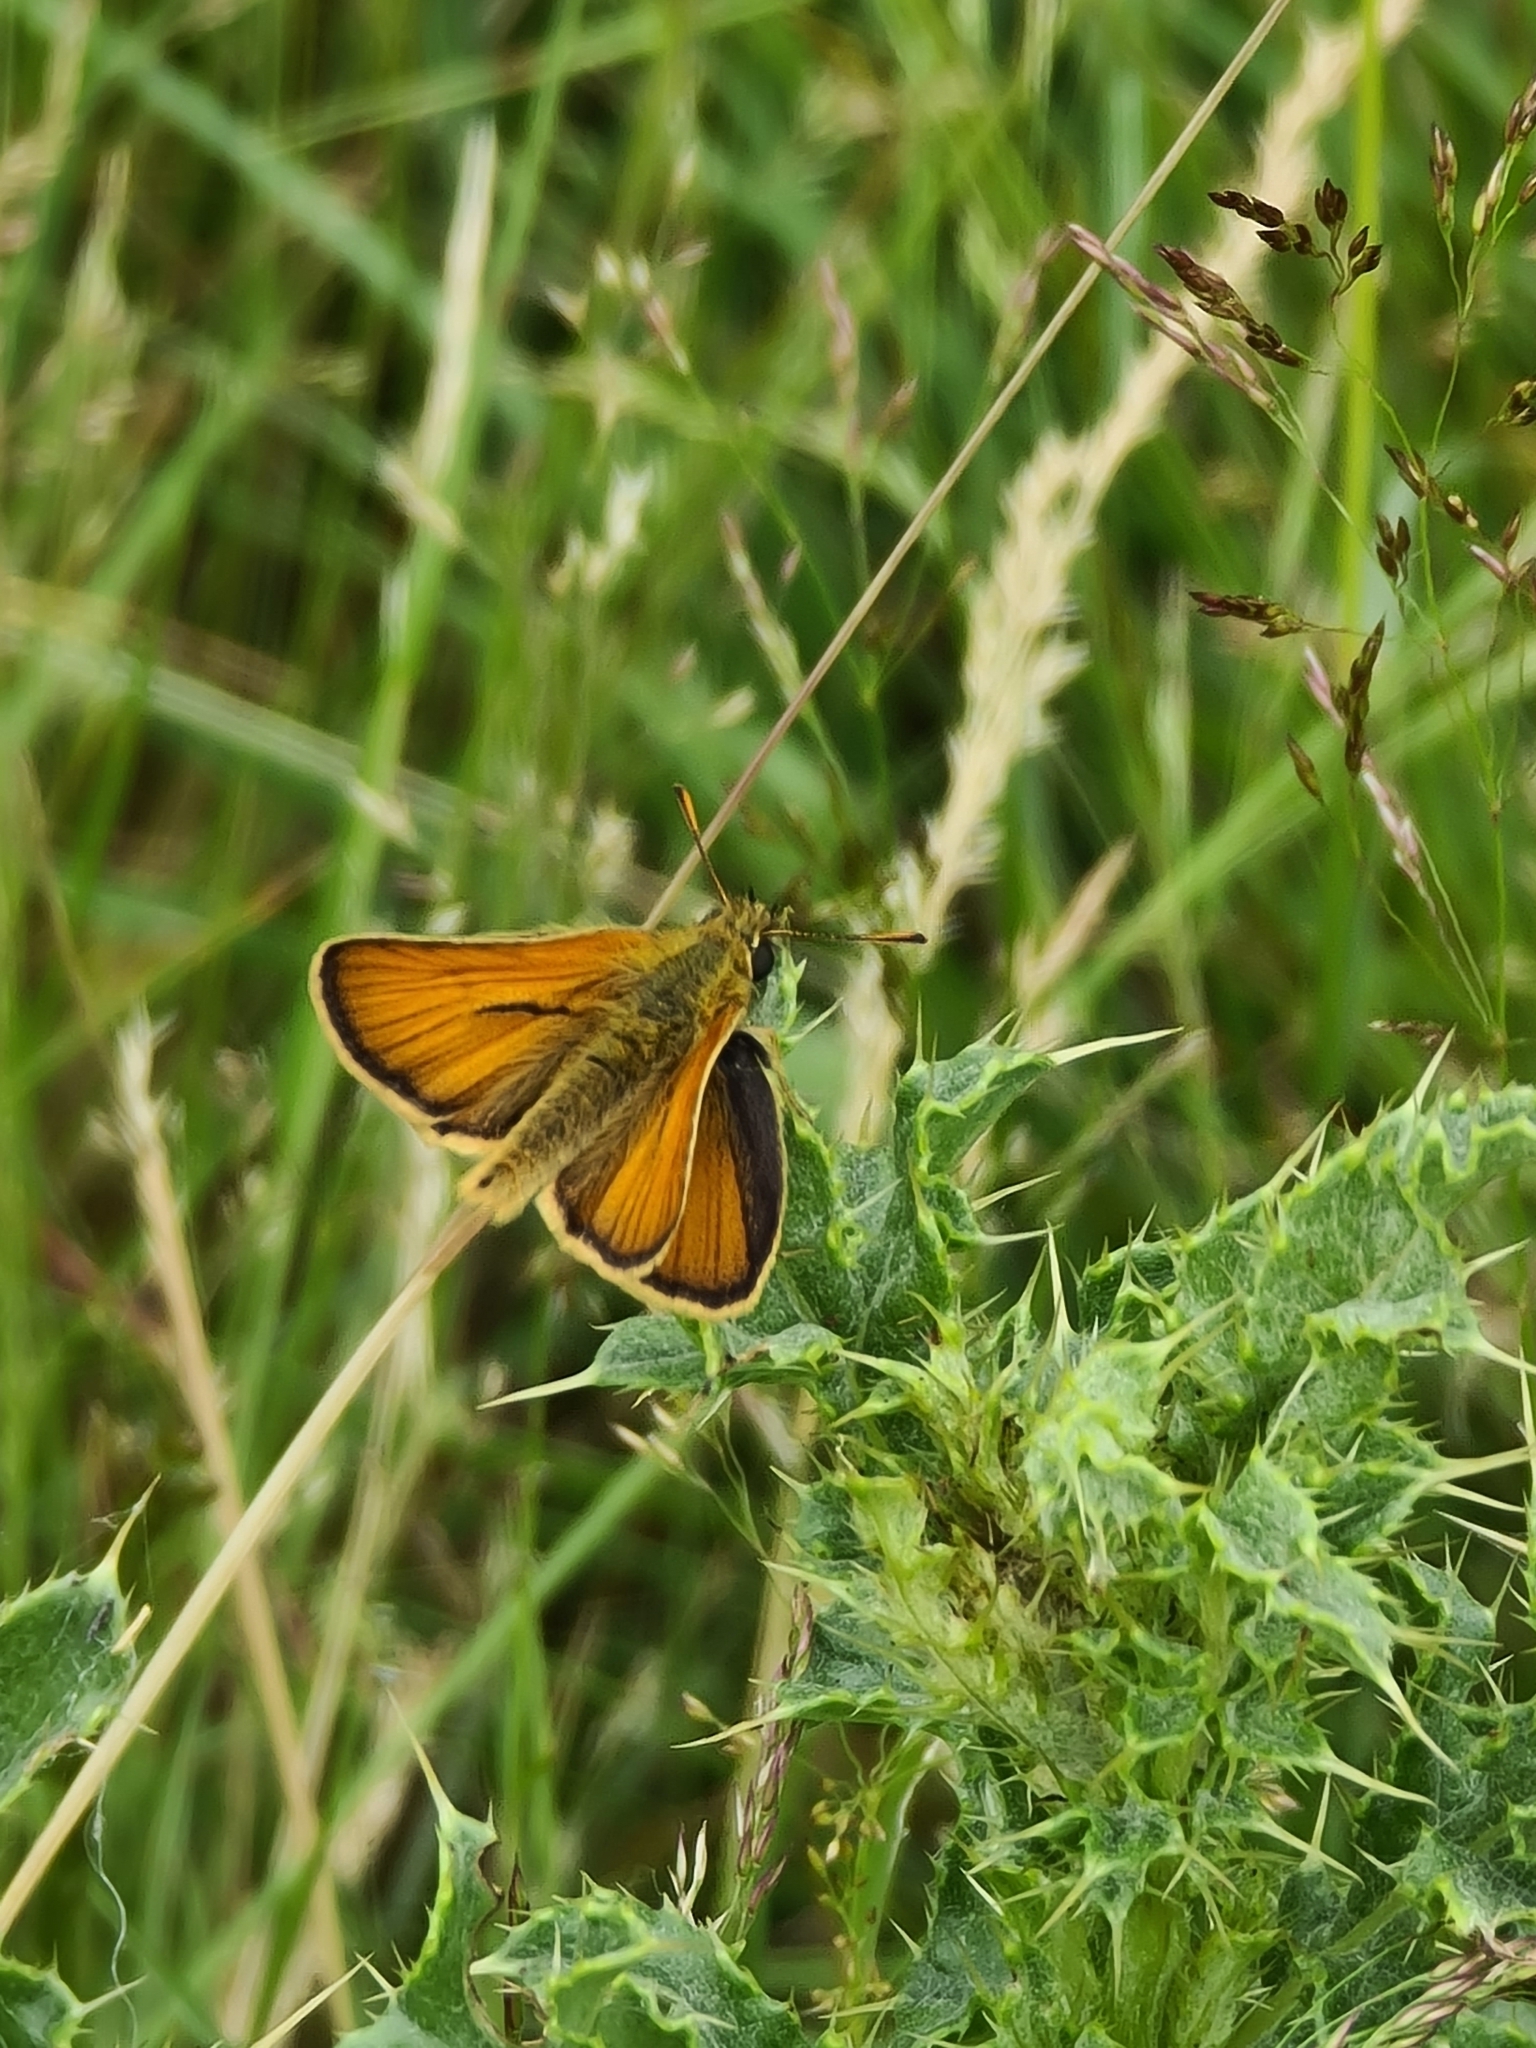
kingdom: Animalia
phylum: Arthropoda
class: Insecta
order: Lepidoptera
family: Hesperiidae
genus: Thymelicus
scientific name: Thymelicus sylvestris
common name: Small skipper
